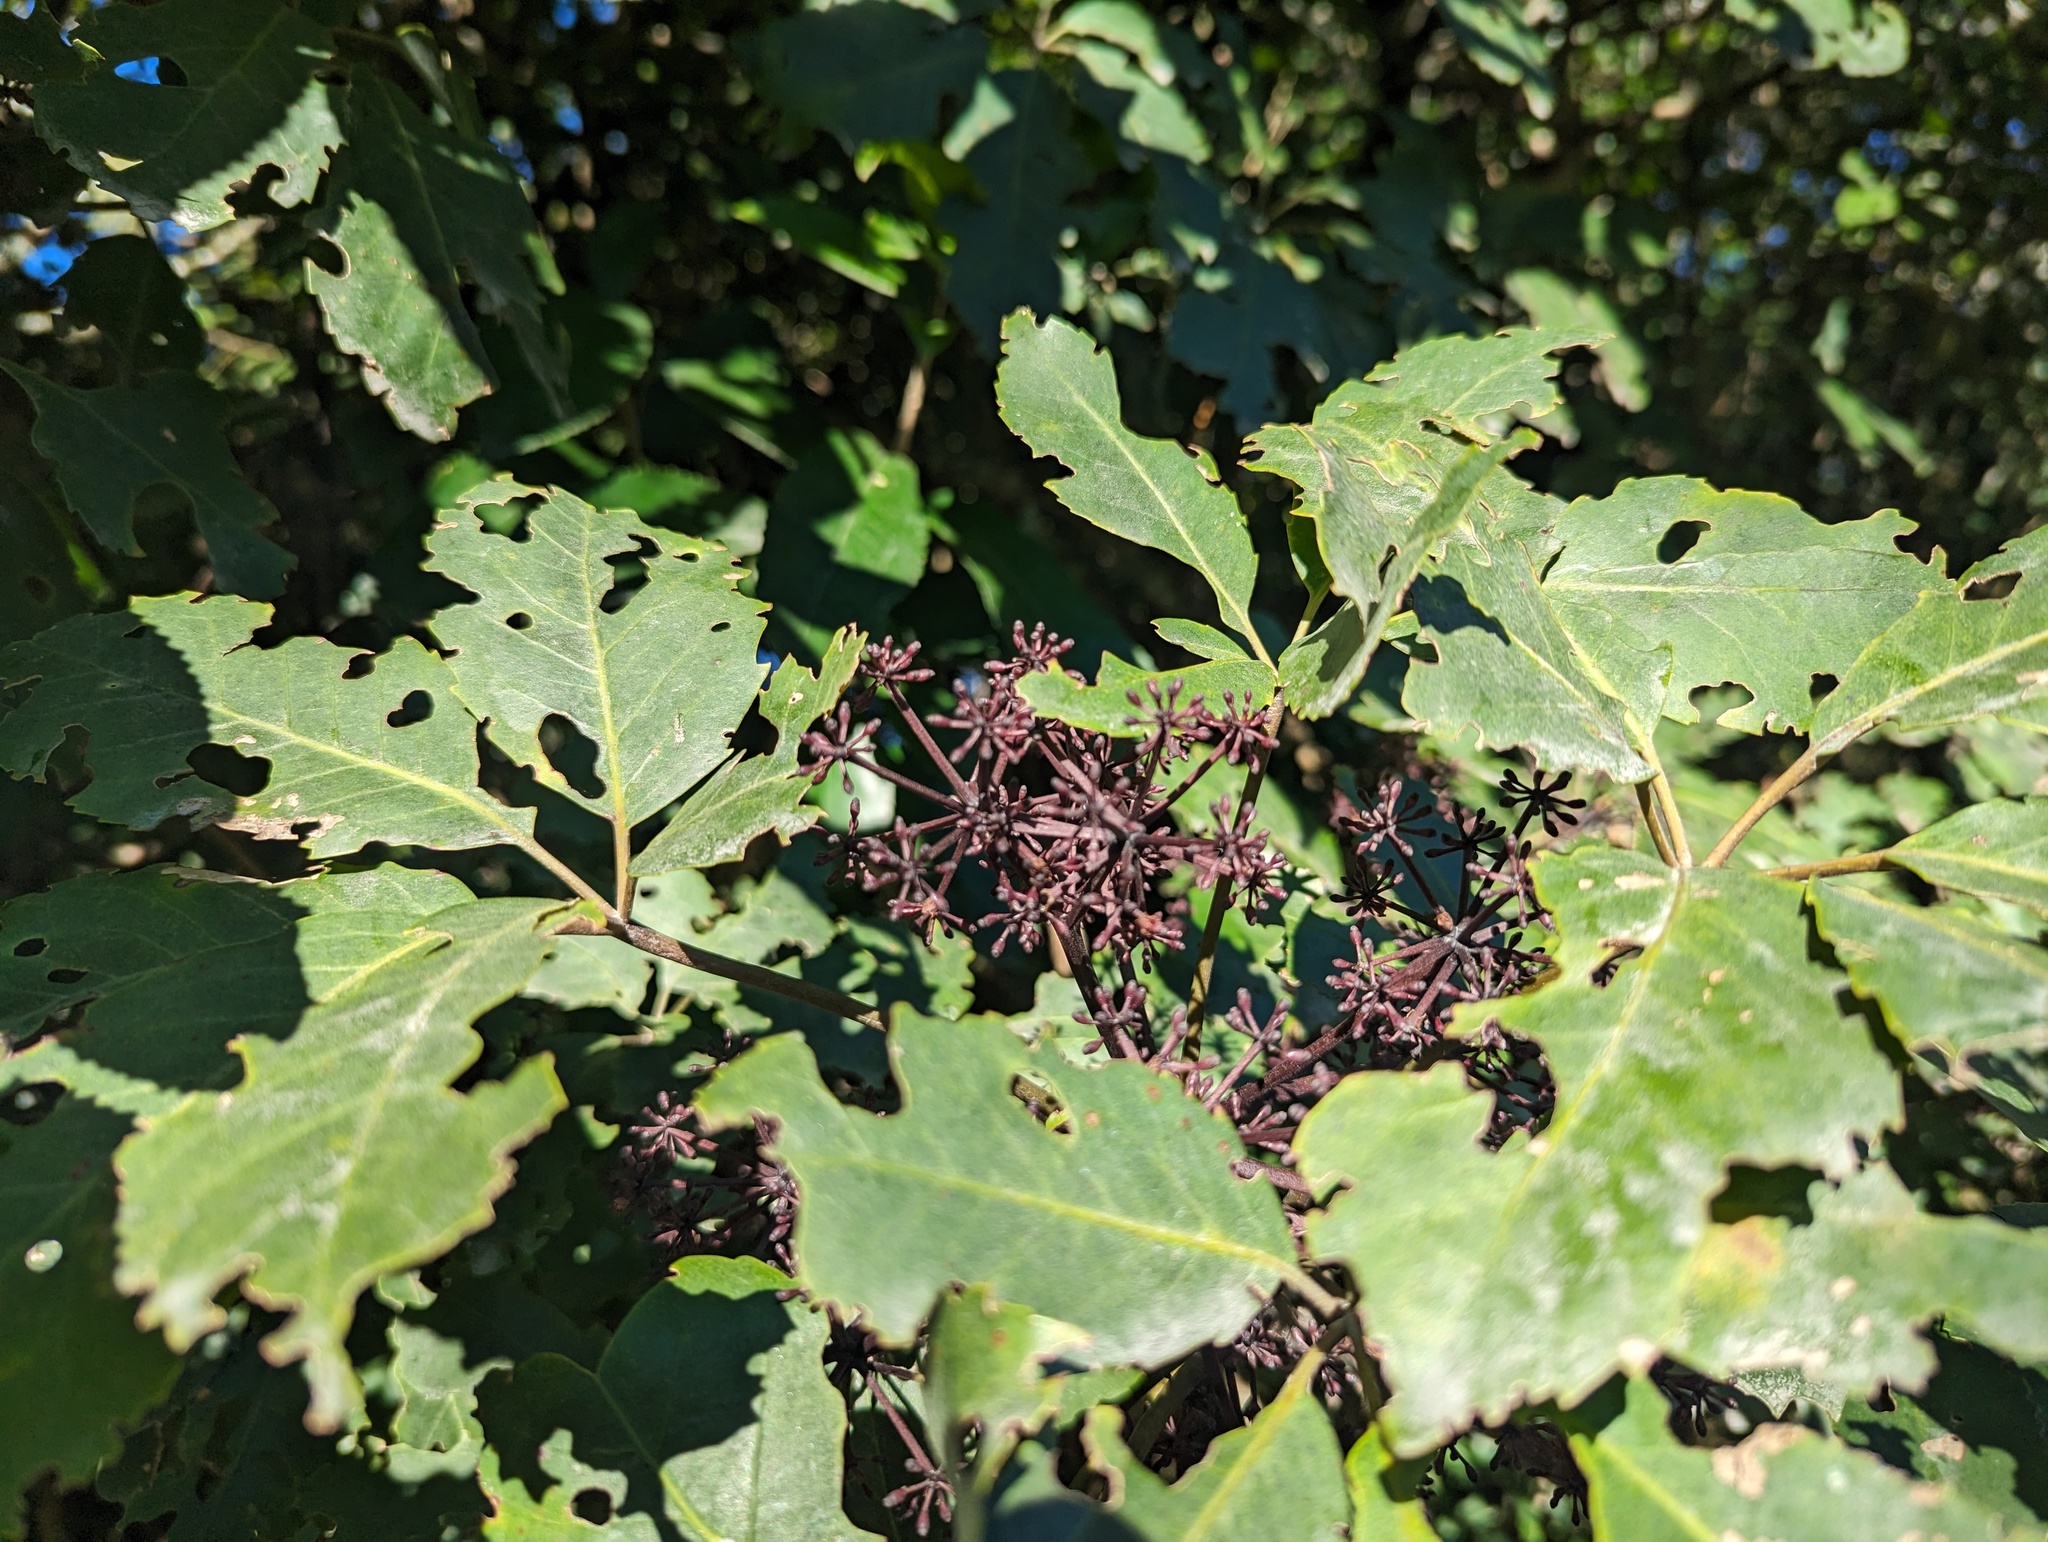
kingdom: Plantae
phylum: Tracheophyta
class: Magnoliopsida
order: Apiales
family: Araliaceae
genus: Neopanax
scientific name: Neopanax arboreus
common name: Five-fingers
